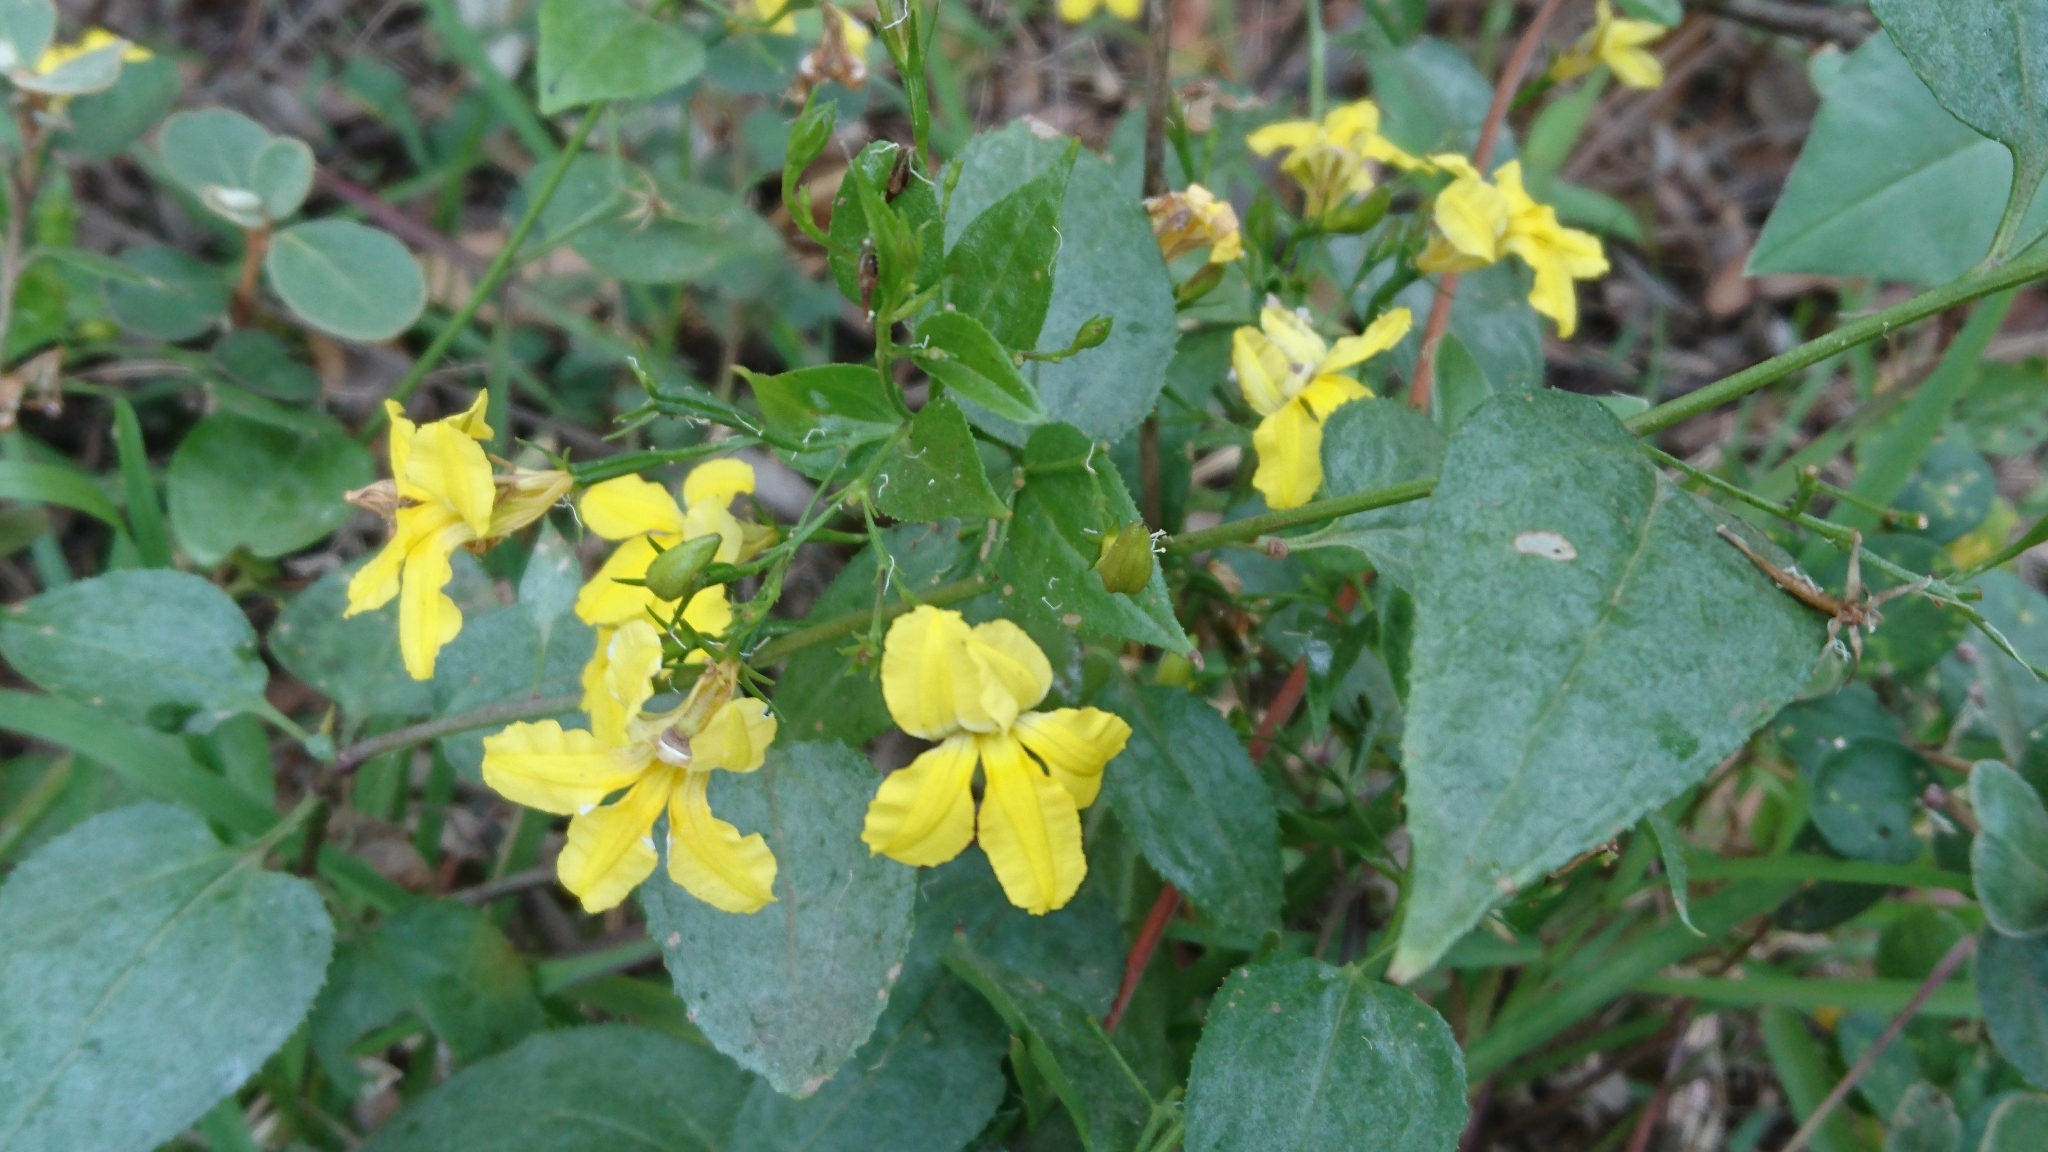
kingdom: Plantae
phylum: Tracheophyta
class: Magnoliopsida
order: Asterales
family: Goodeniaceae
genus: Goodenia
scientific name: Goodenia ovata
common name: Hop goodenia
